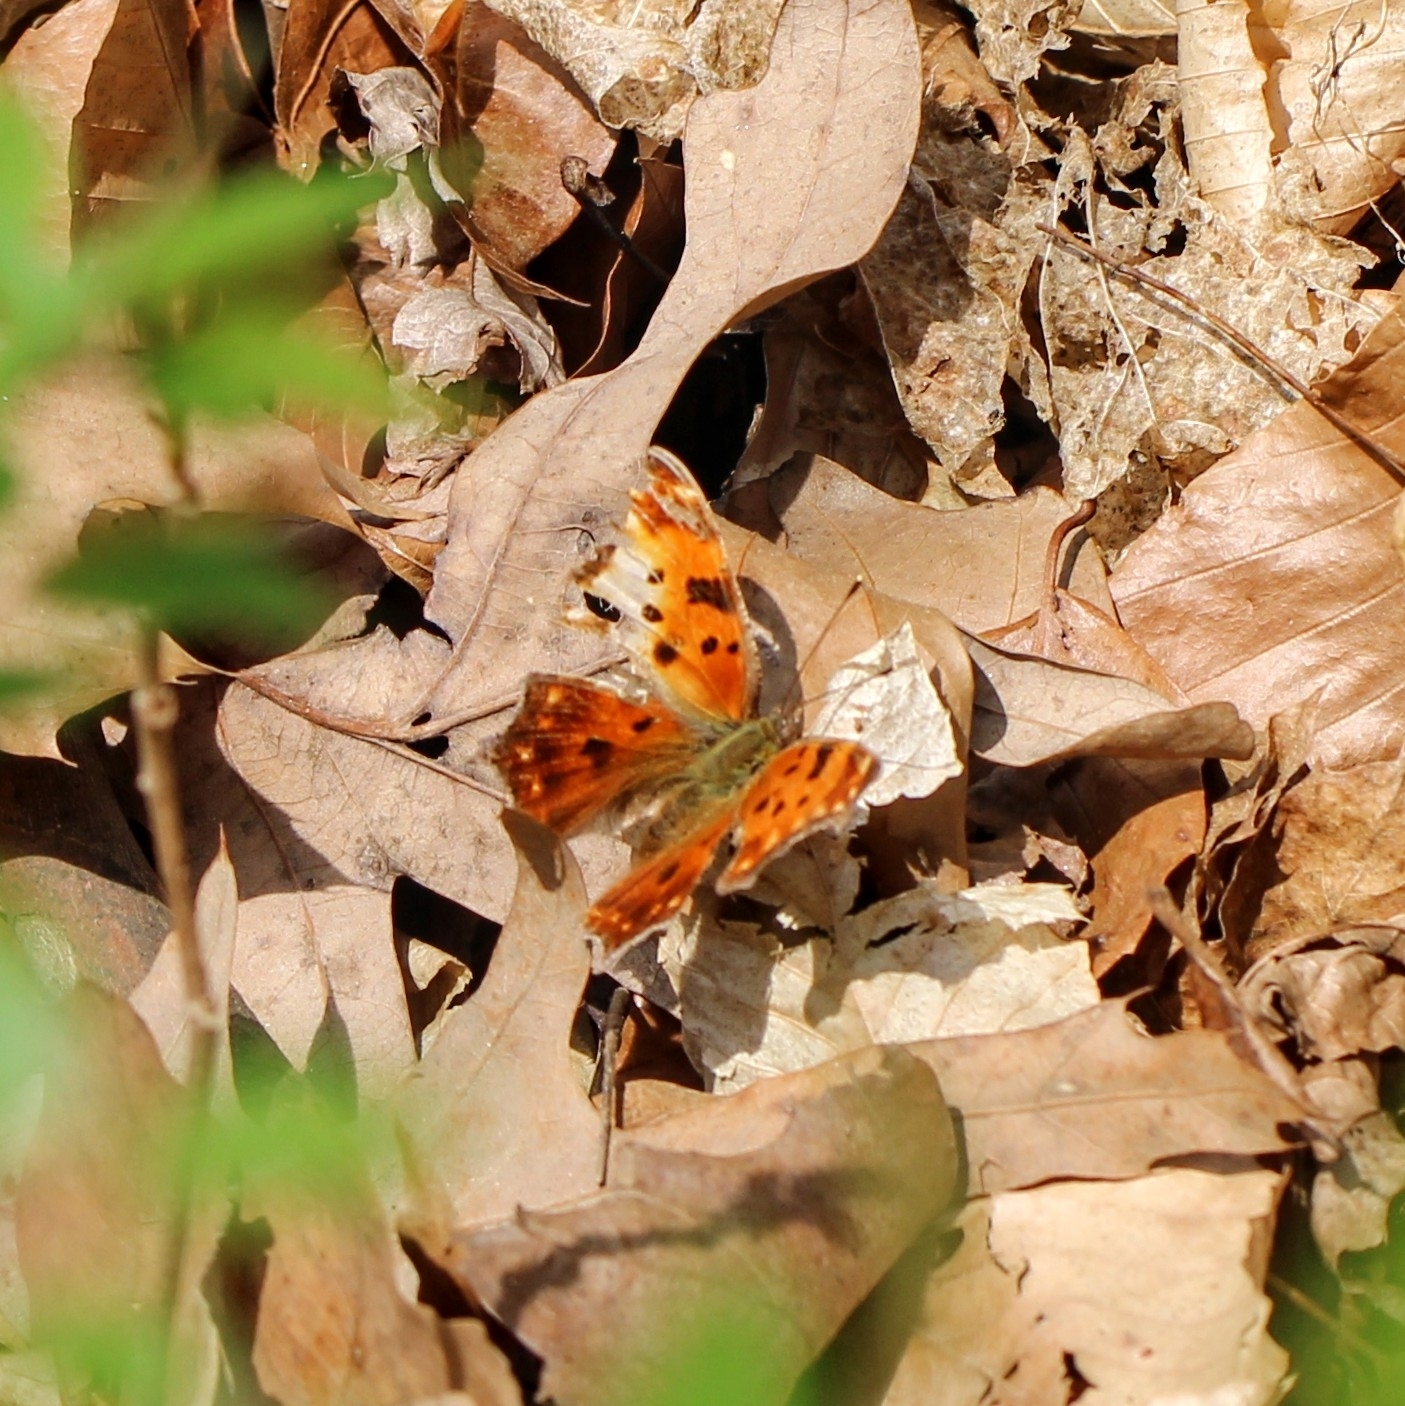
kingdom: Animalia
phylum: Arthropoda
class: Insecta
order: Lepidoptera
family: Nymphalidae
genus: Polygonia
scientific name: Polygonia comma
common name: Eastern comma
